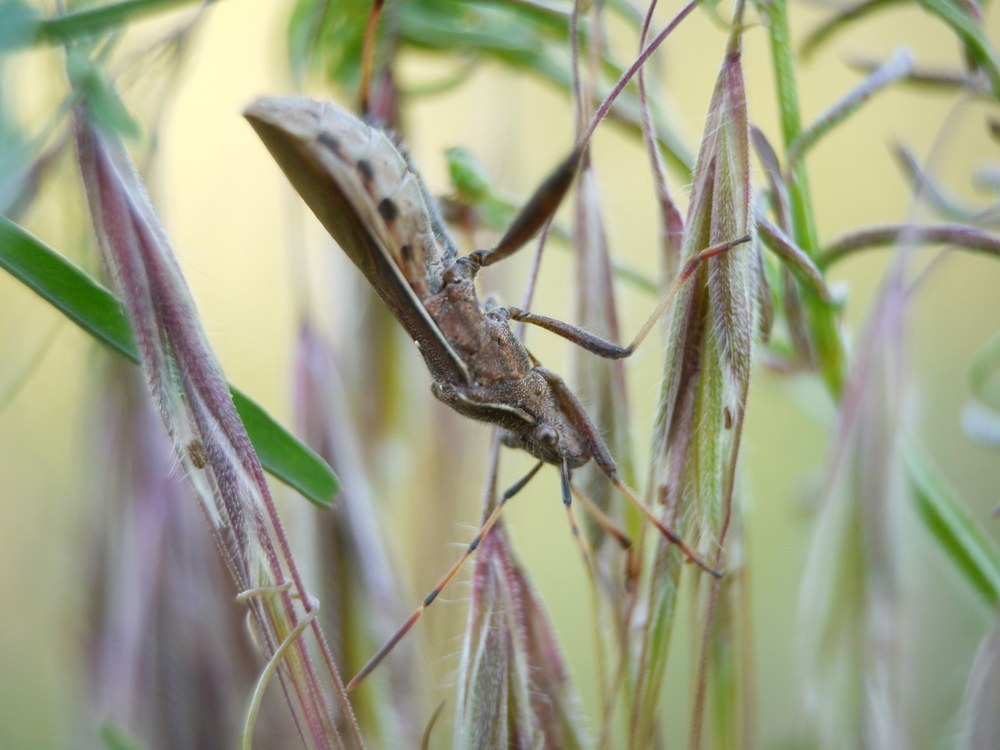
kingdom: Animalia
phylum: Arthropoda
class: Insecta
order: Hemiptera
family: Alydidae
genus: Camptopus
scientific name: Camptopus lateralis
